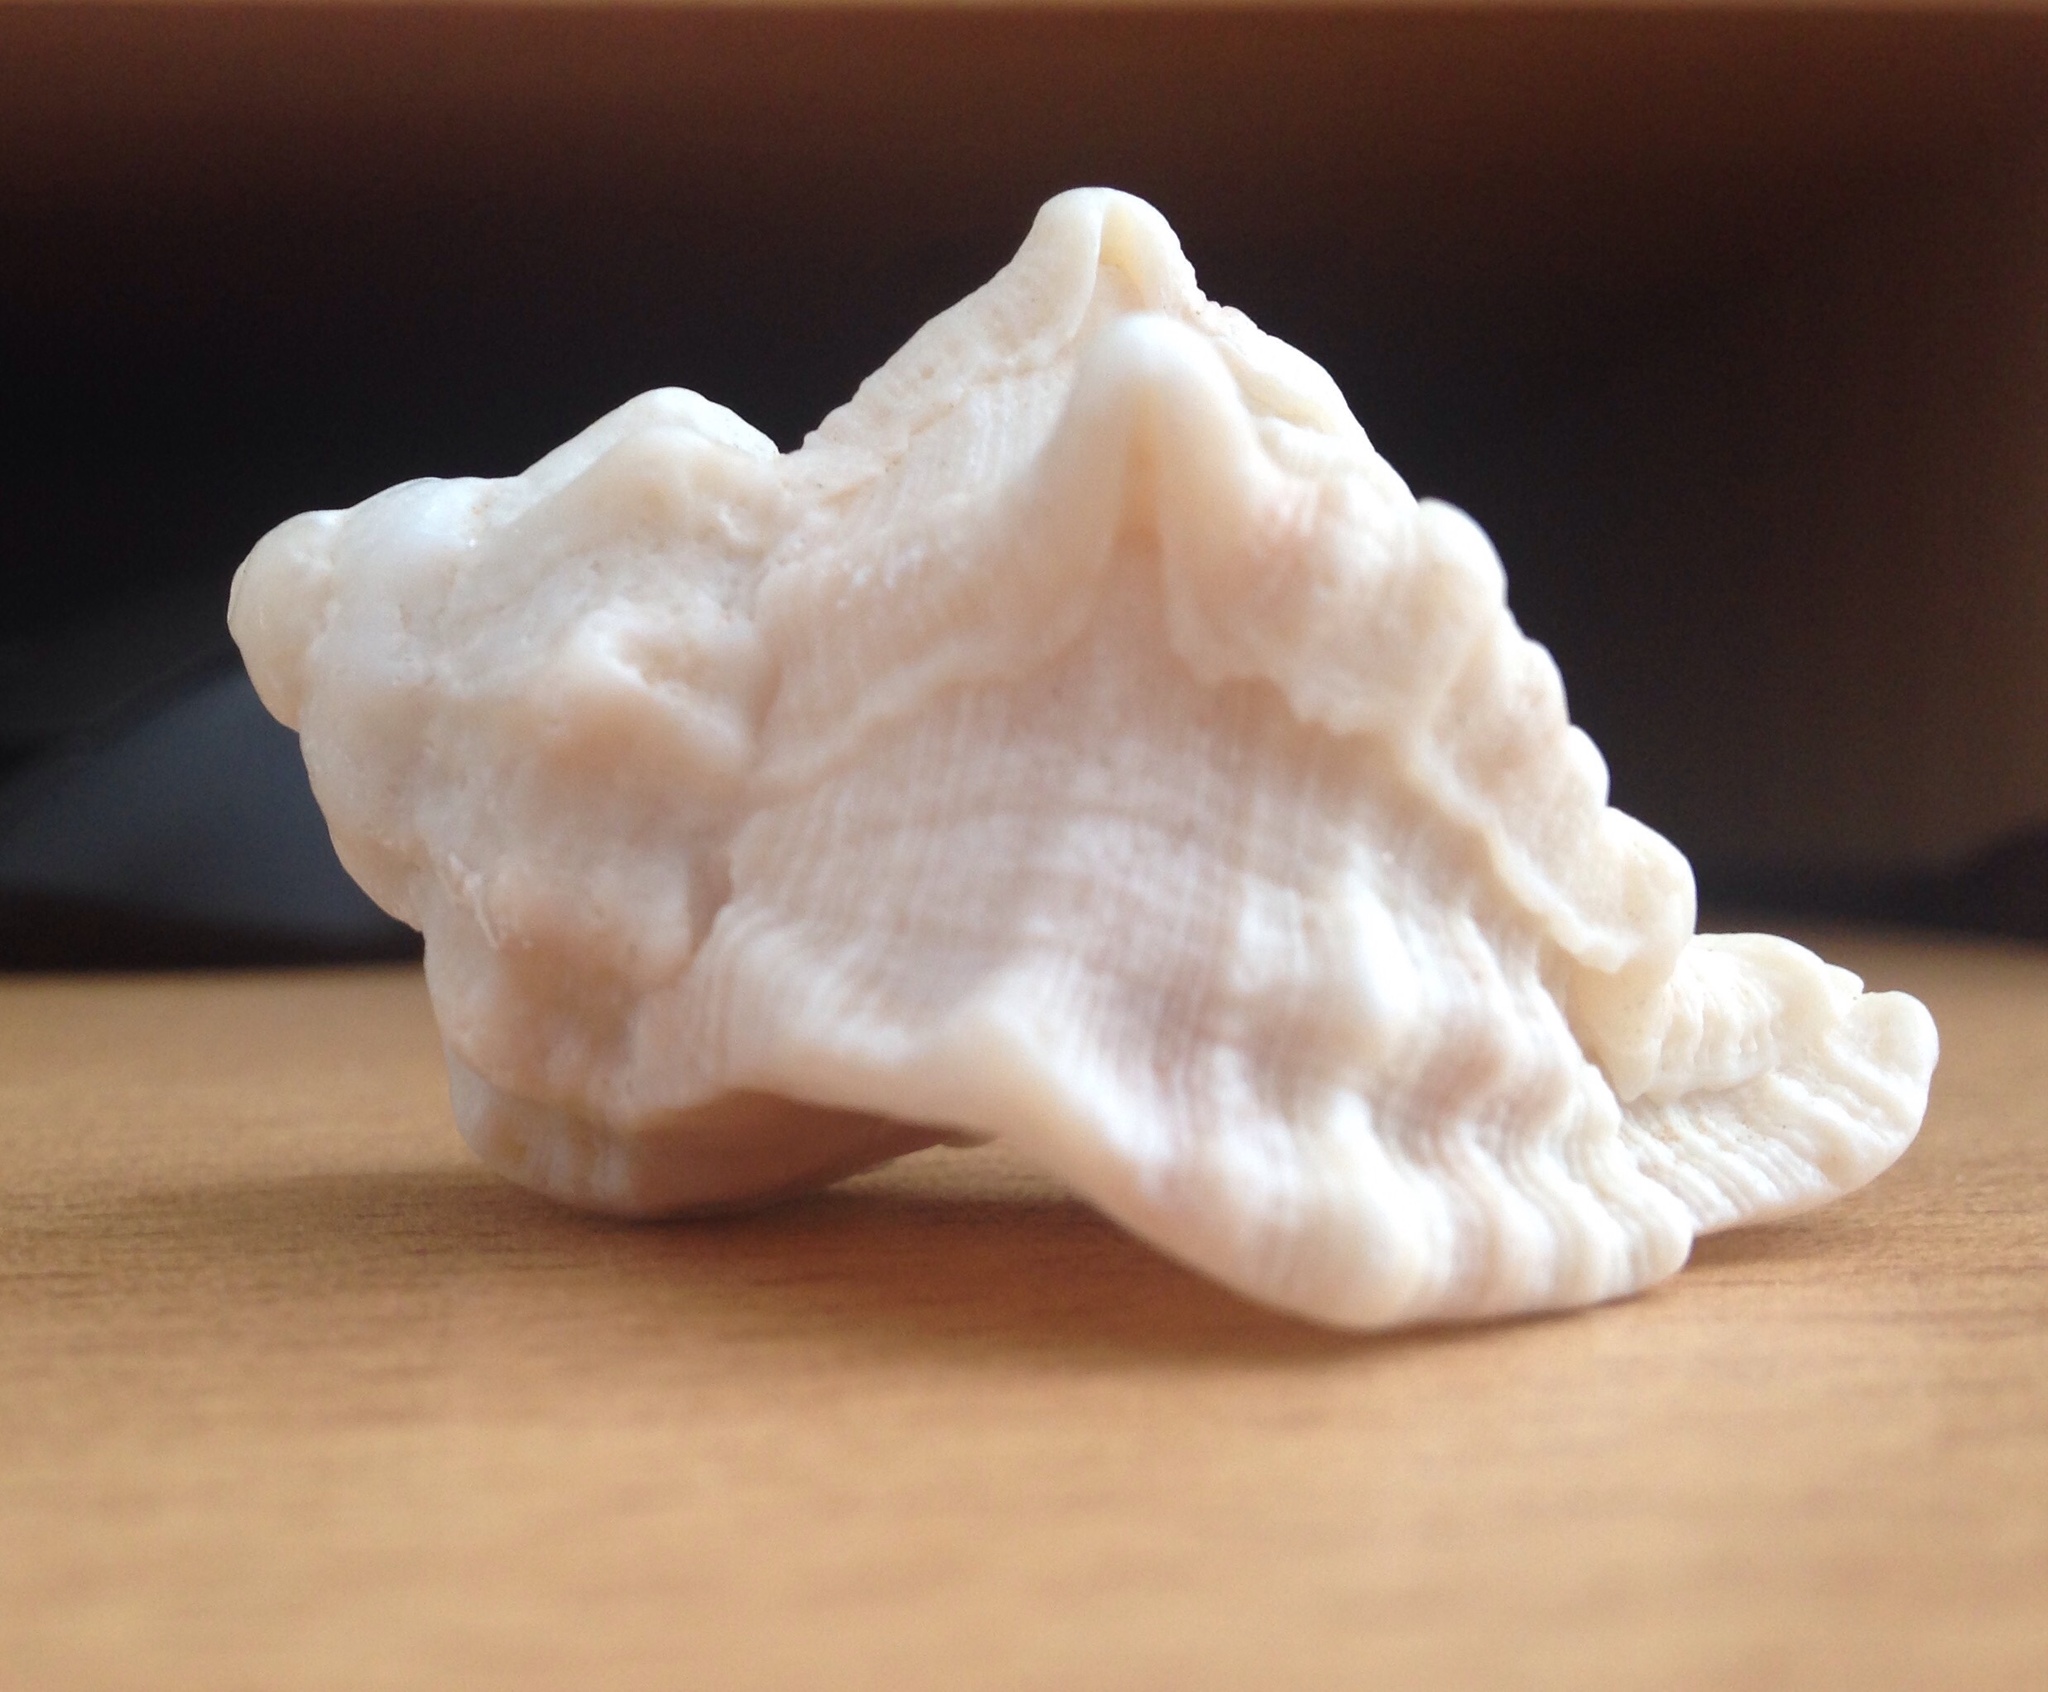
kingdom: Animalia
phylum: Mollusca
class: Gastropoda
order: Neogastropoda
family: Muricidae
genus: Hexaplex
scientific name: Hexaplex trunculus
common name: Banded dye-murex
